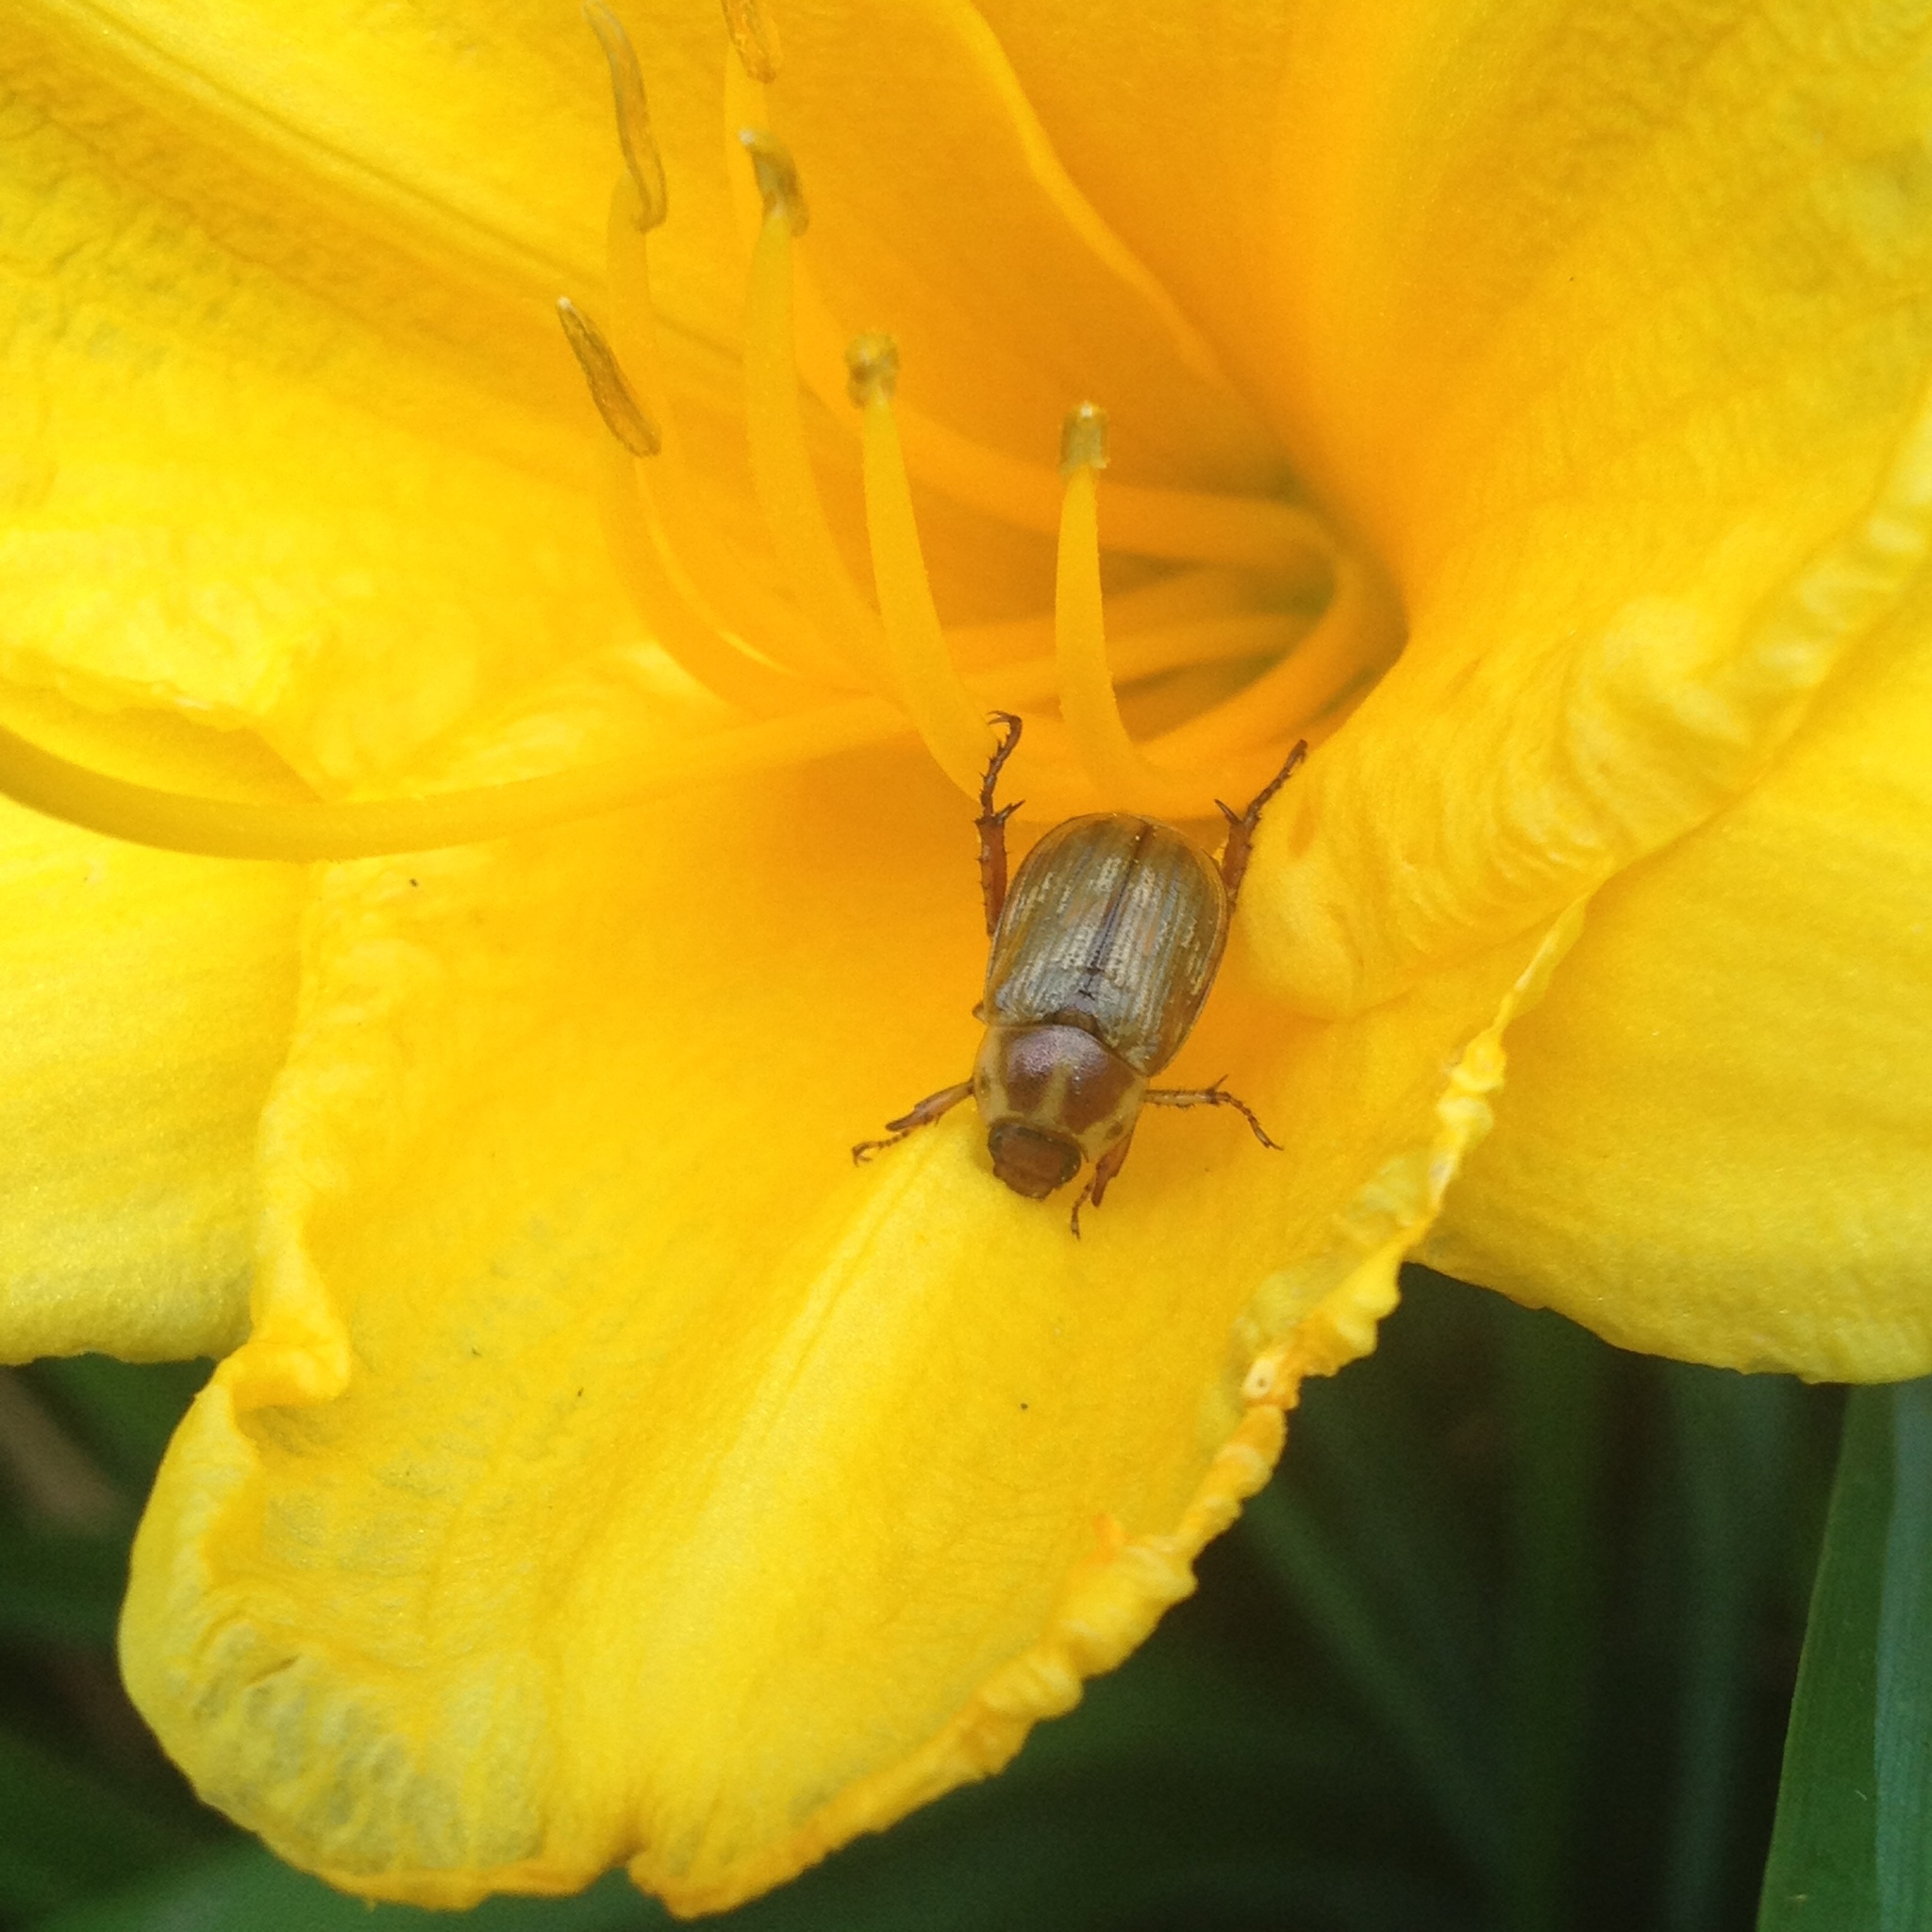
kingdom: Animalia
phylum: Arthropoda
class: Insecta
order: Coleoptera
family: Scarabaeidae
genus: Exomala
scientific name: Exomala orientalis
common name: Oriental beetle
